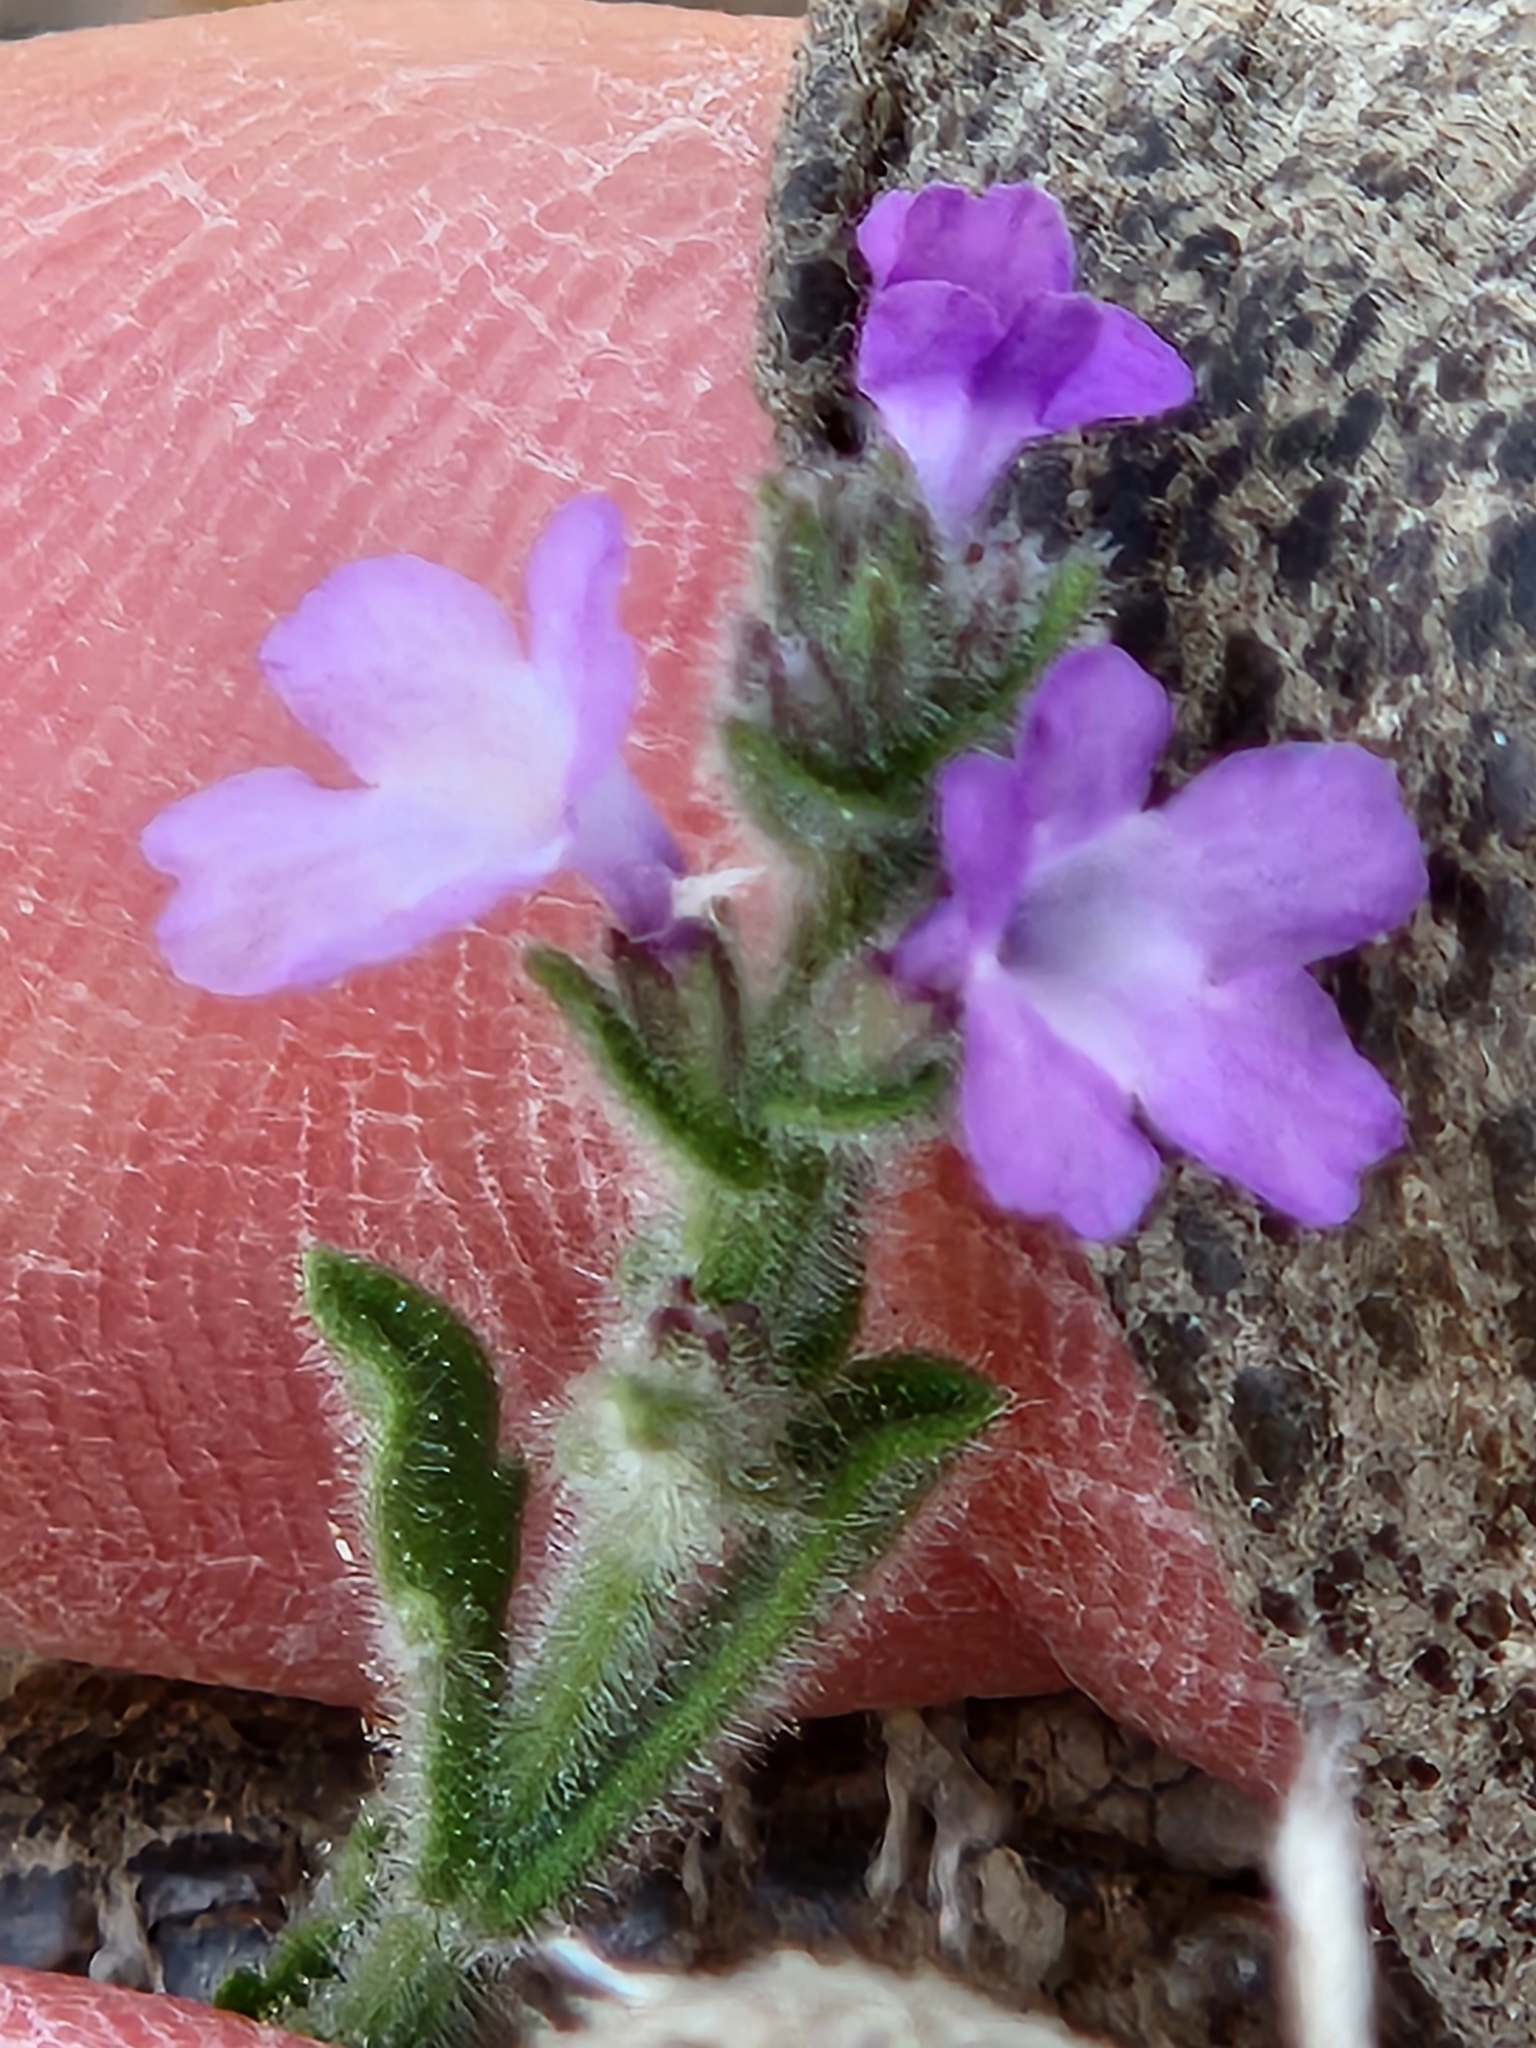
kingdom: Plantae
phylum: Tracheophyta
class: Magnoliopsida
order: Lamiales
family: Verbenaceae
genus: Verbena
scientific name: Verbena canescens
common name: Gray vervain
